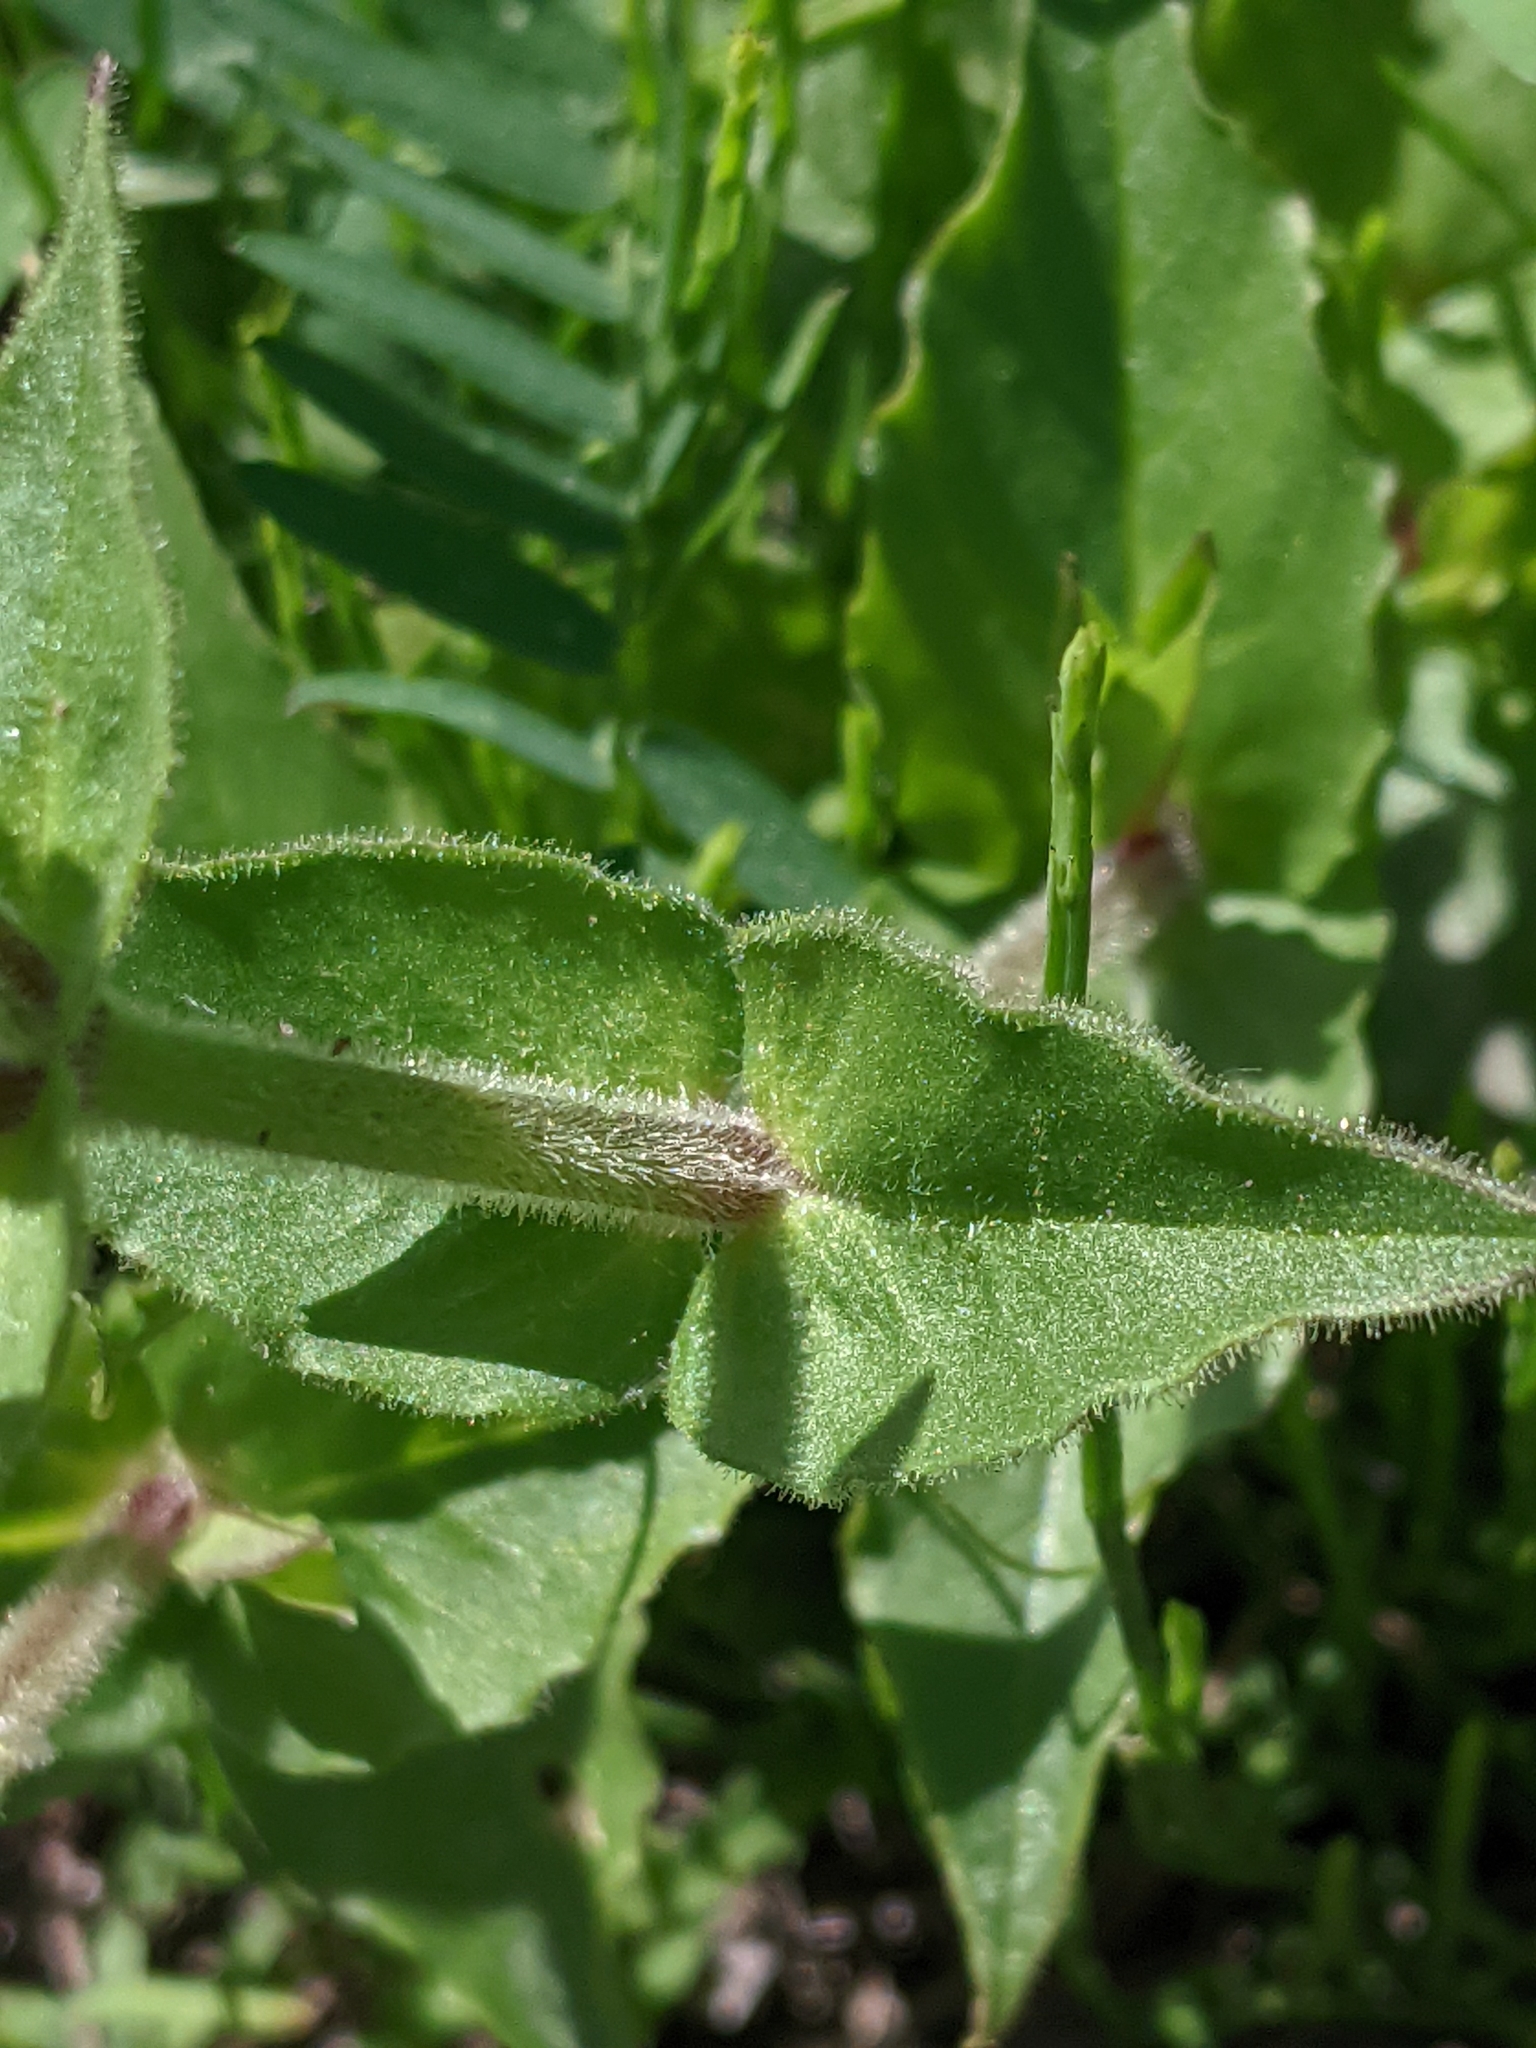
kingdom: Plantae
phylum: Tracheophyta
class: Magnoliopsida
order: Caryophyllales
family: Caryophyllaceae
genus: Stellaria
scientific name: Stellaria aquatica
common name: Water chickweed
